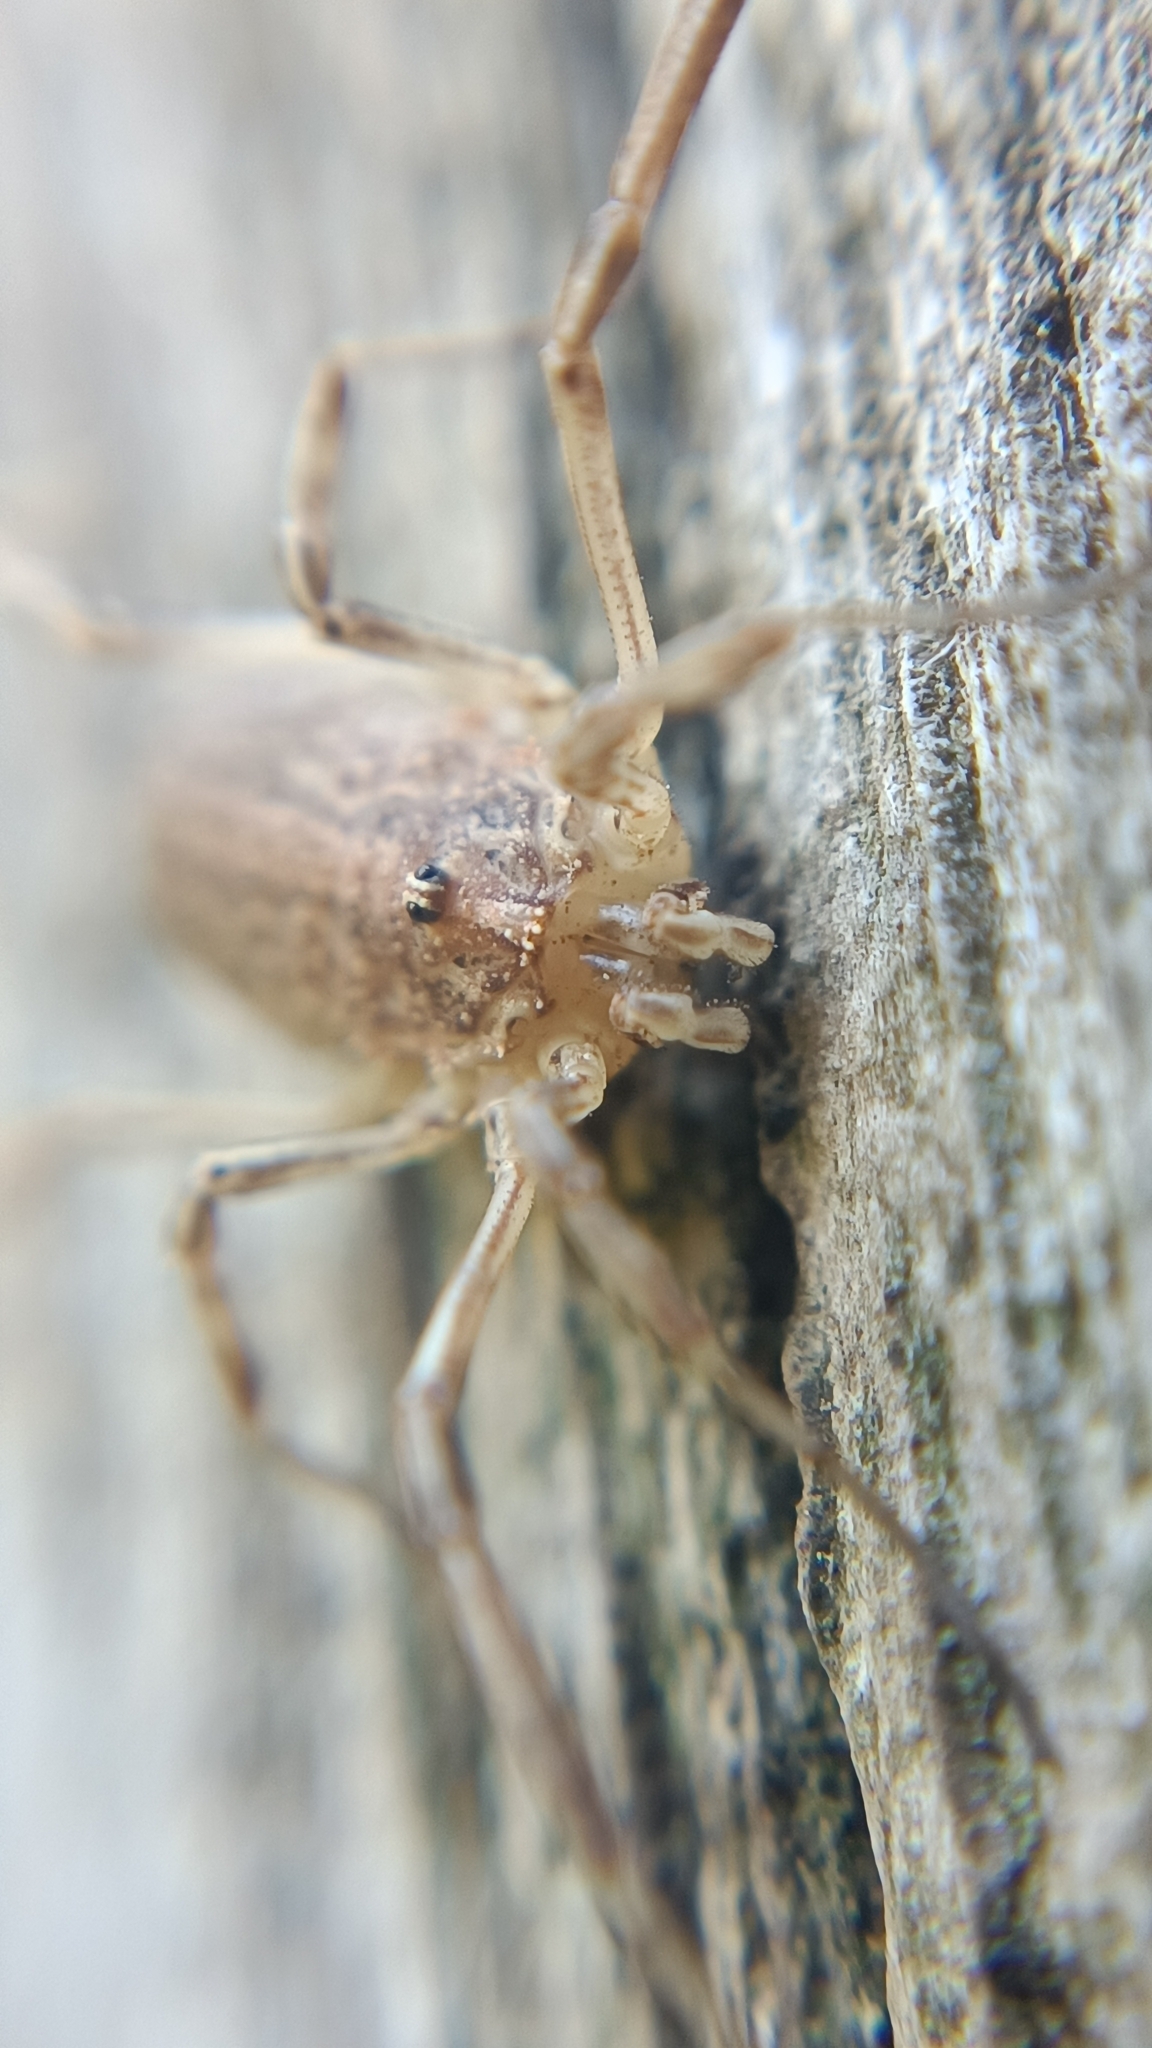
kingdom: Animalia
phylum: Arthropoda
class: Arachnida
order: Opiliones
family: Phalangiidae
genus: Odiellus
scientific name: Odiellus troguloides
